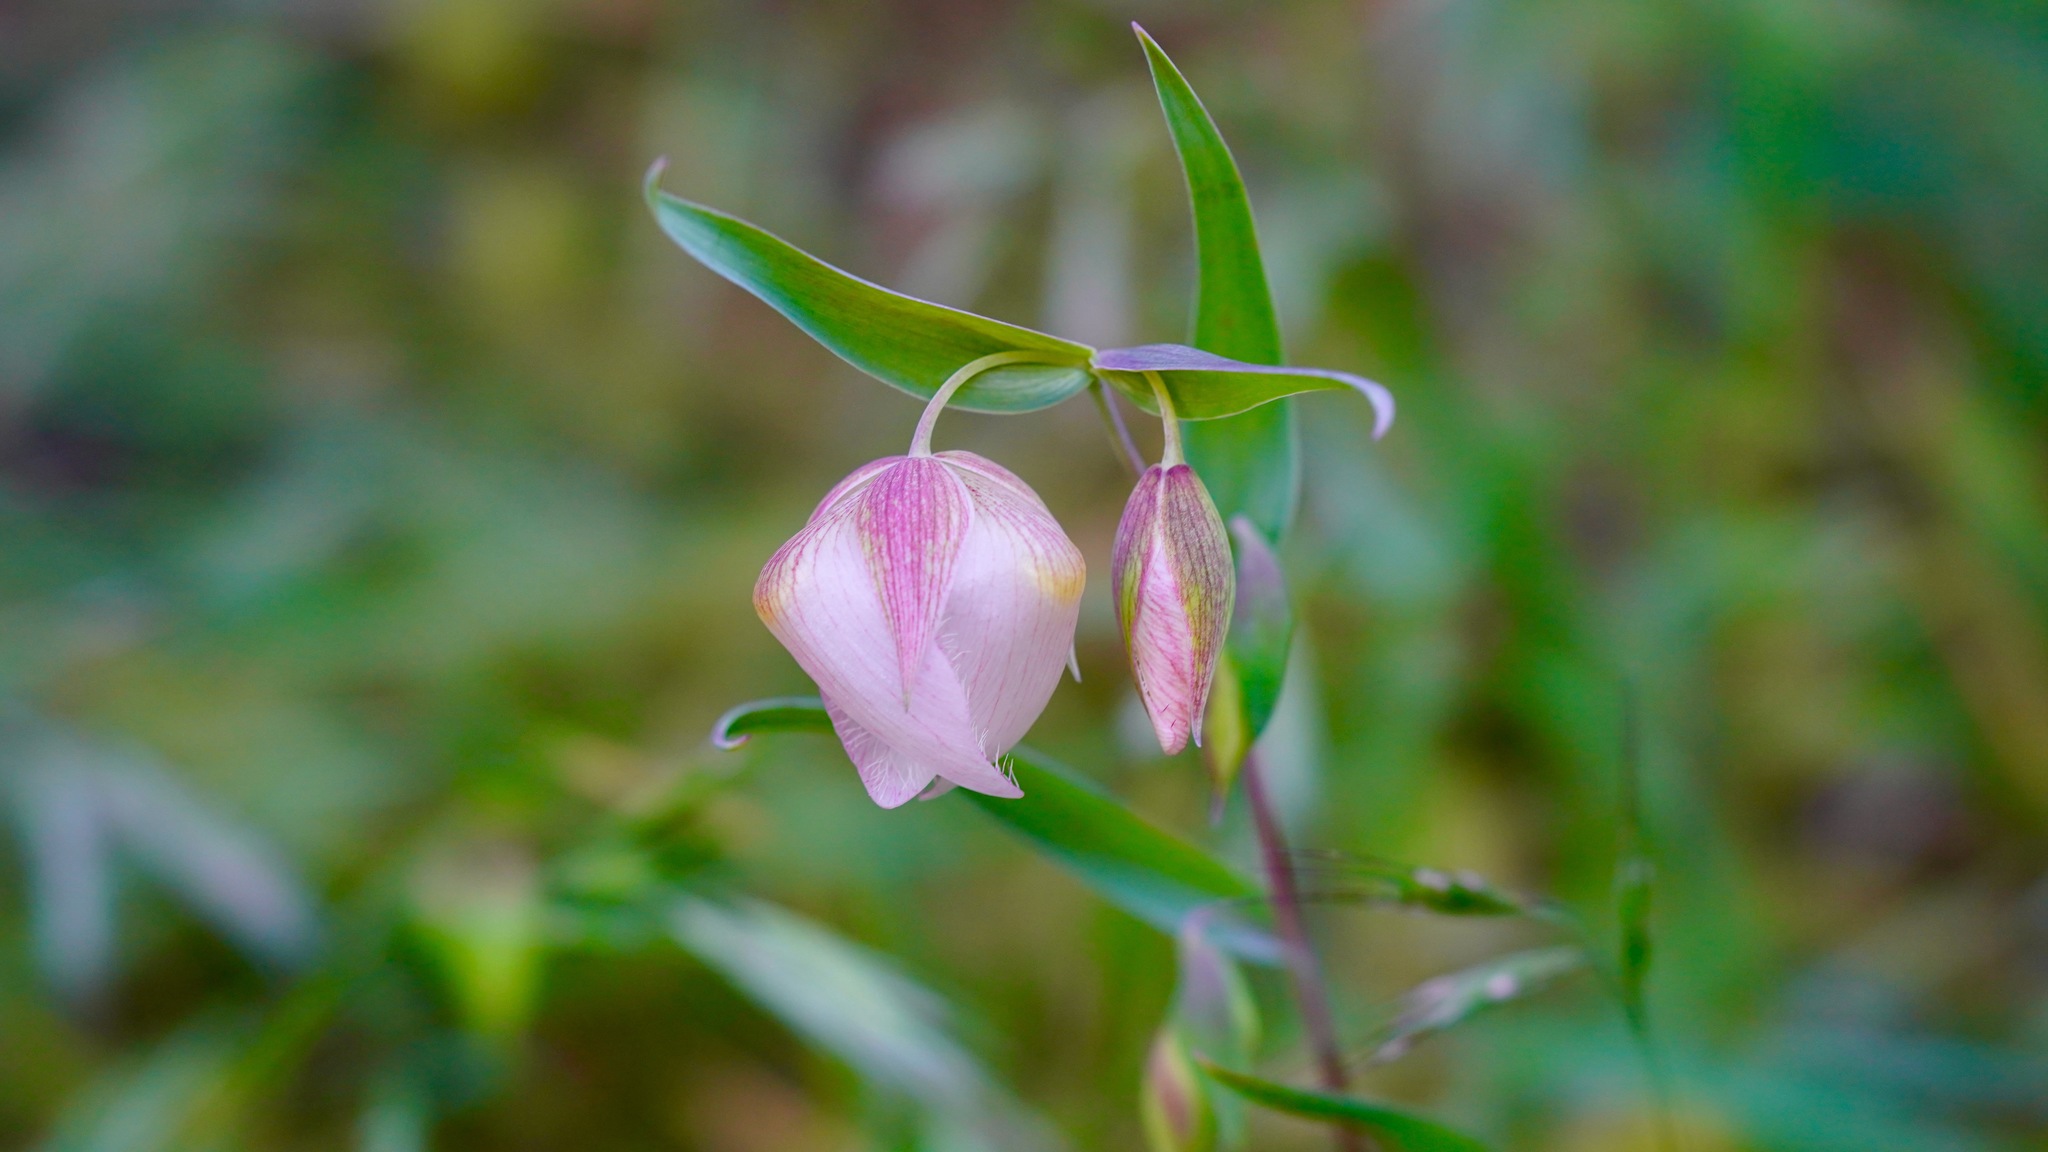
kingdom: Plantae
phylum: Tracheophyta
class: Liliopsida
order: Liliales
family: Liliaceae
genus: Calochortus
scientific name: Calochortus albus
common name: Fairy-lantern
